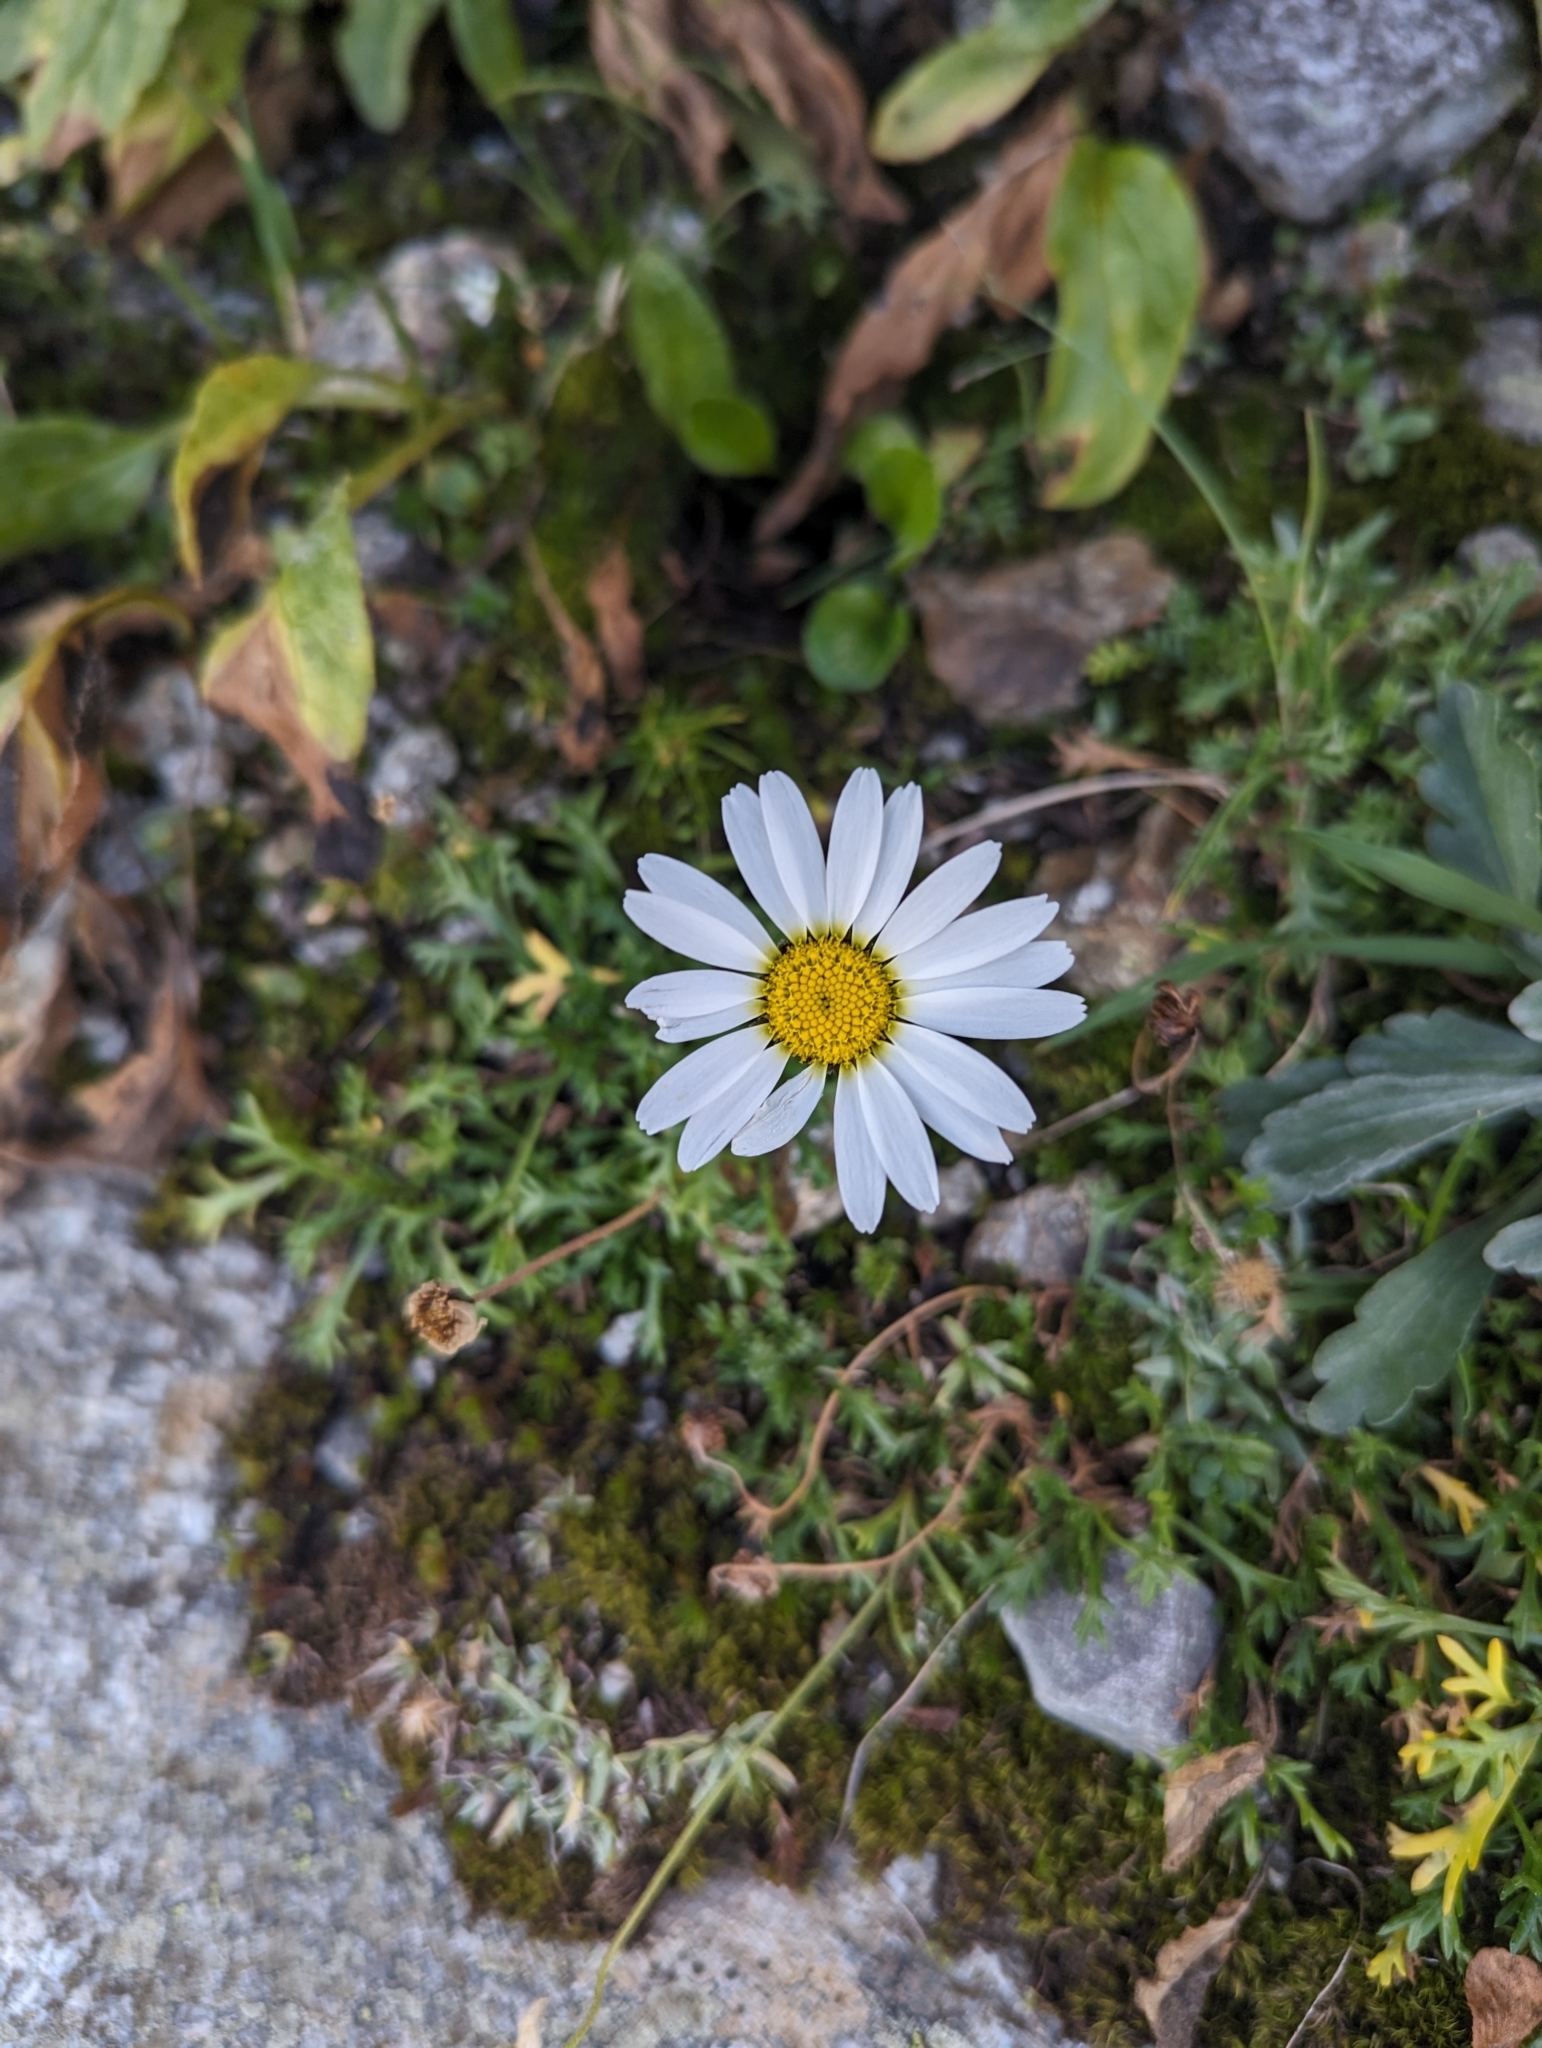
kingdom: Plantae
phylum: Tracheophyta
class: Magnoliopsida
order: Asterales
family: Asteraceae
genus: Leucanthemopsis
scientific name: Leucanthemopsis alpina
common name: Alpine moon daisy
